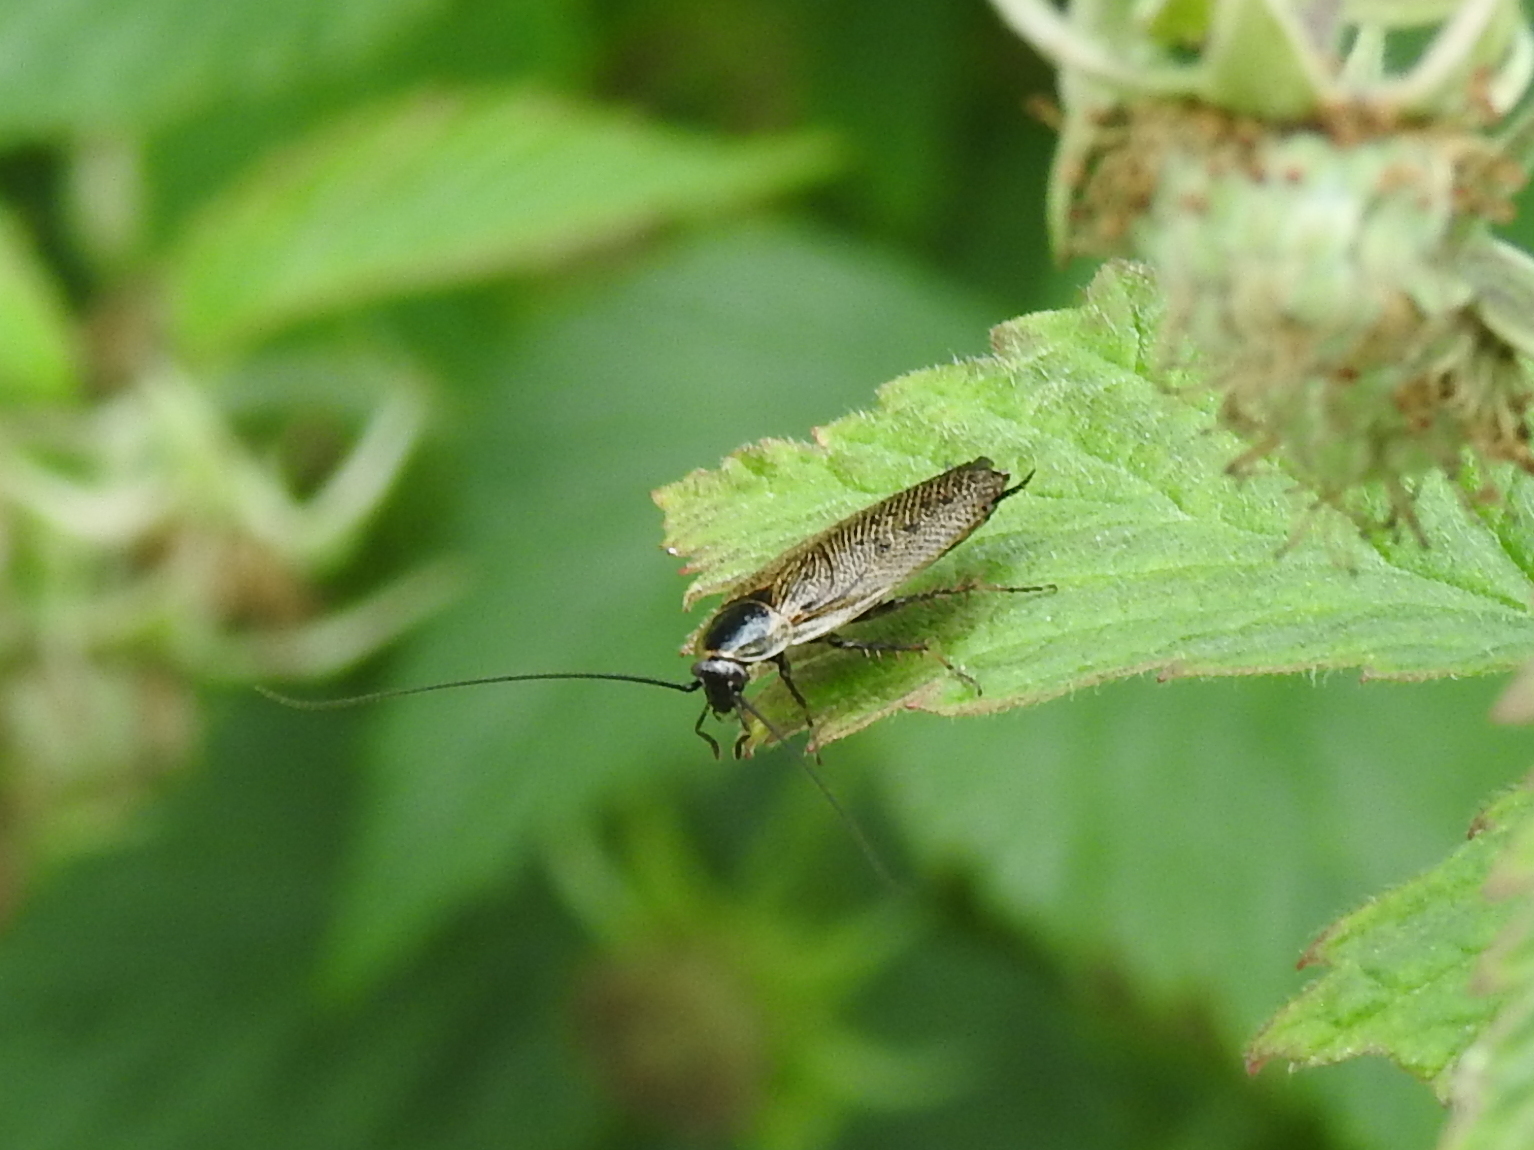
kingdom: Animalia
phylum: Arthropoda
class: Insecta
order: Blattodea
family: Ectobiidae
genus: Ectobius
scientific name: Ectobius lapponicus
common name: Dusky cockroach
